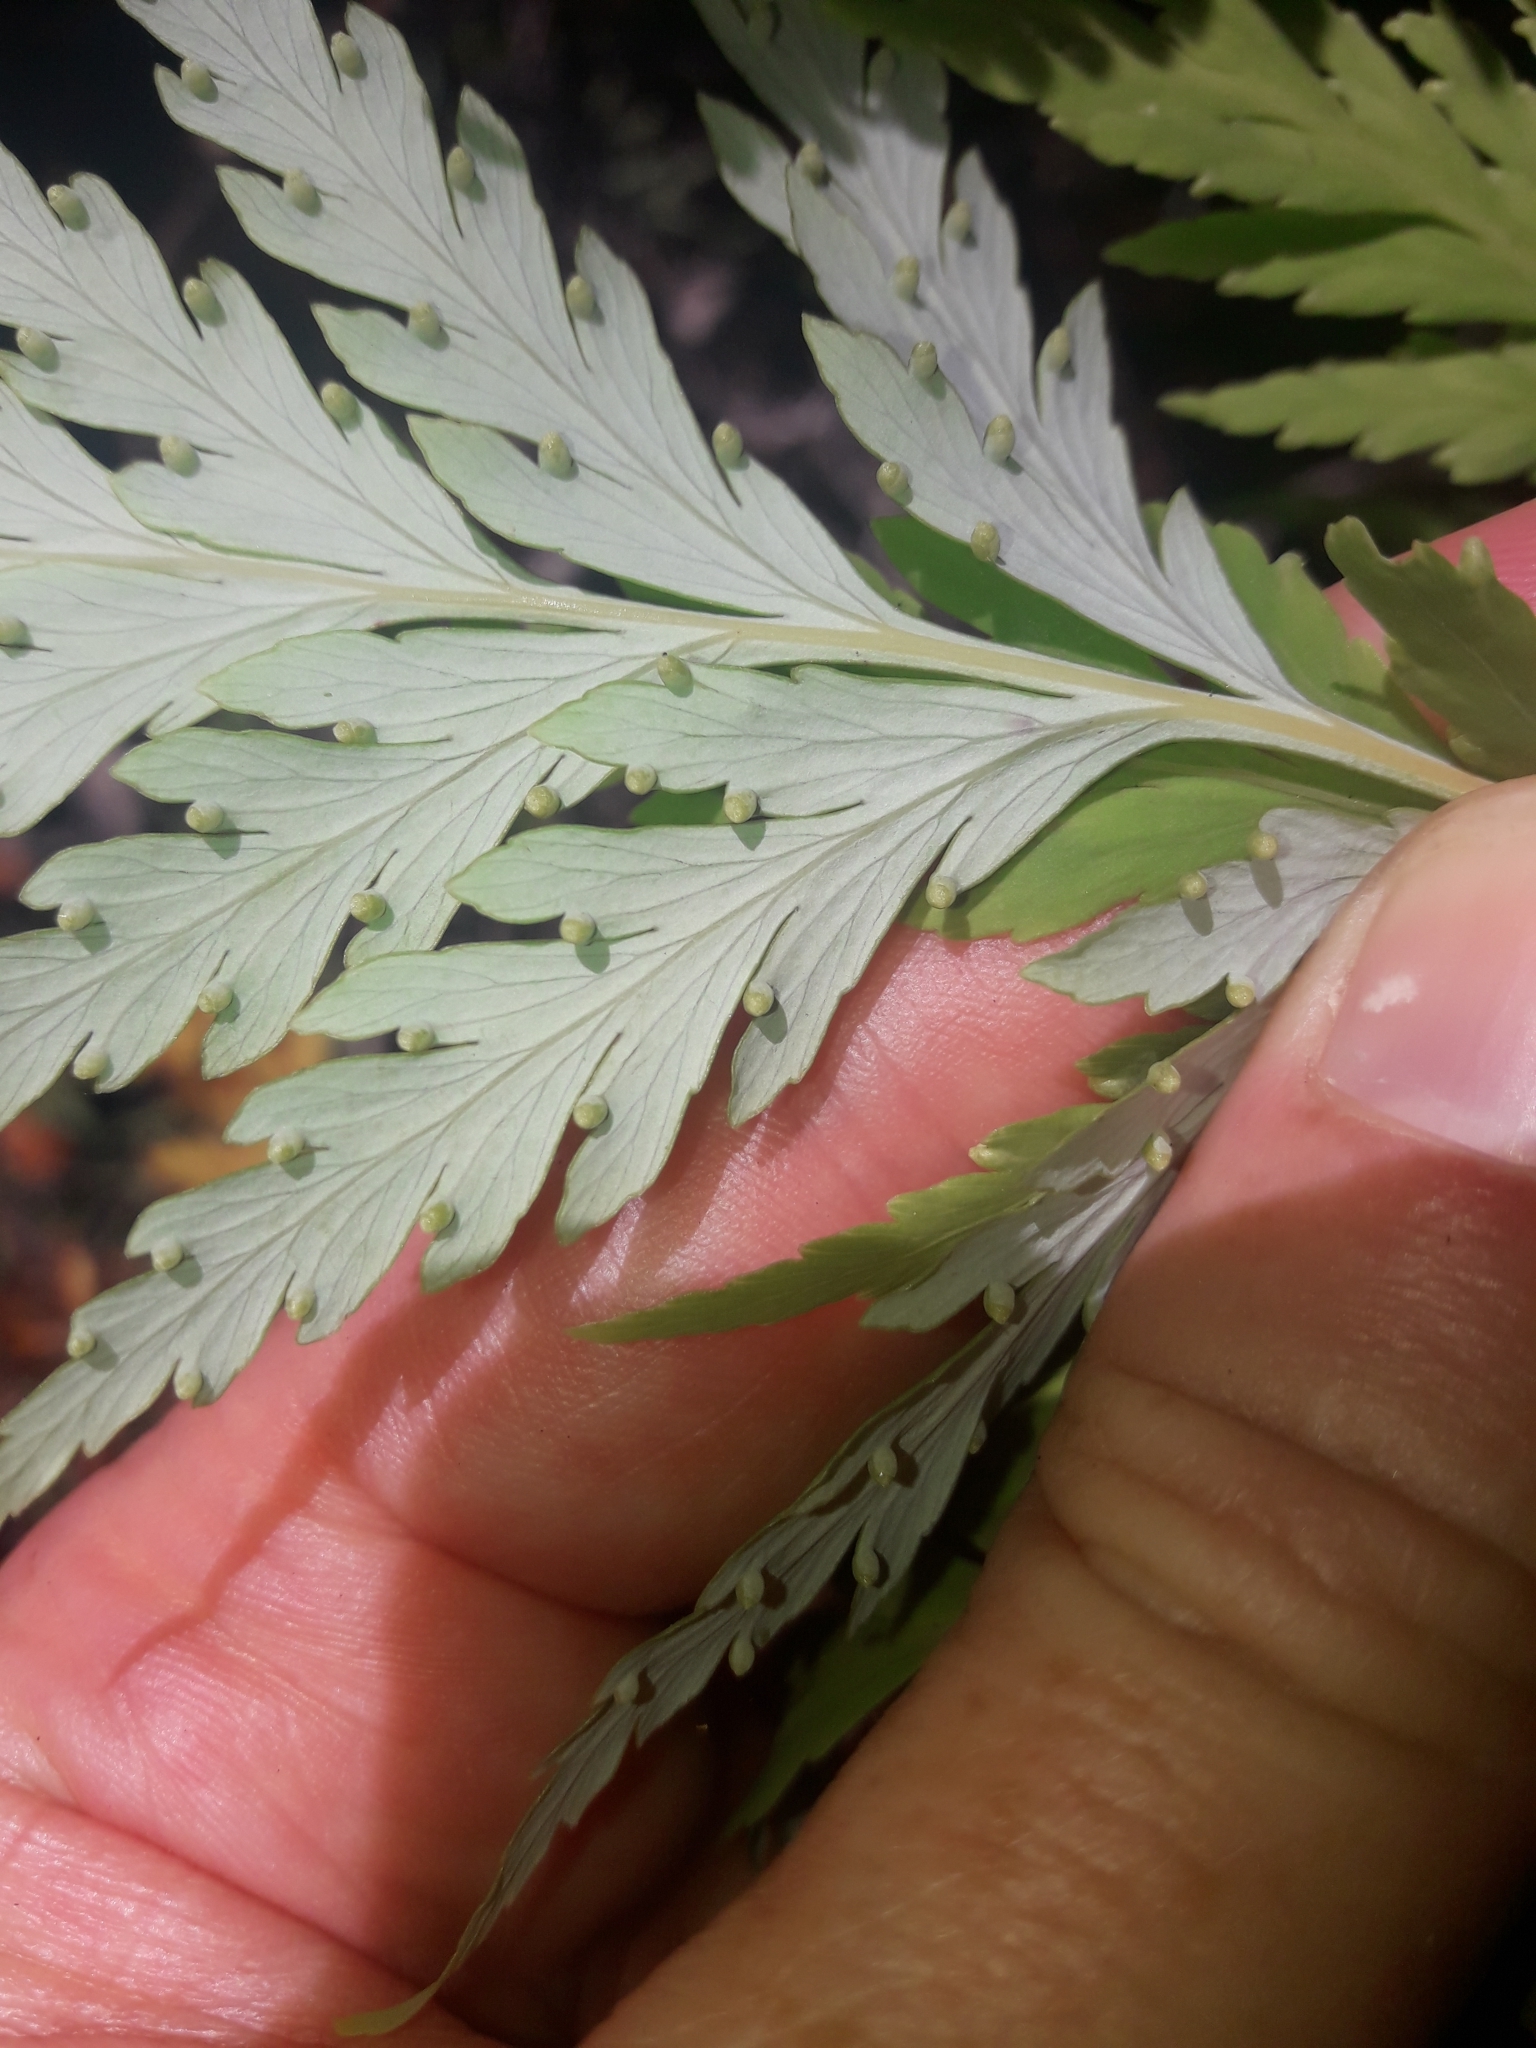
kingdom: Plantae
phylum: Tracheophyta
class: Polypodiopsida
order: Cyatheales
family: Loxsomataceae
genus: Loxsoma
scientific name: Loxsoma cunninghamii
